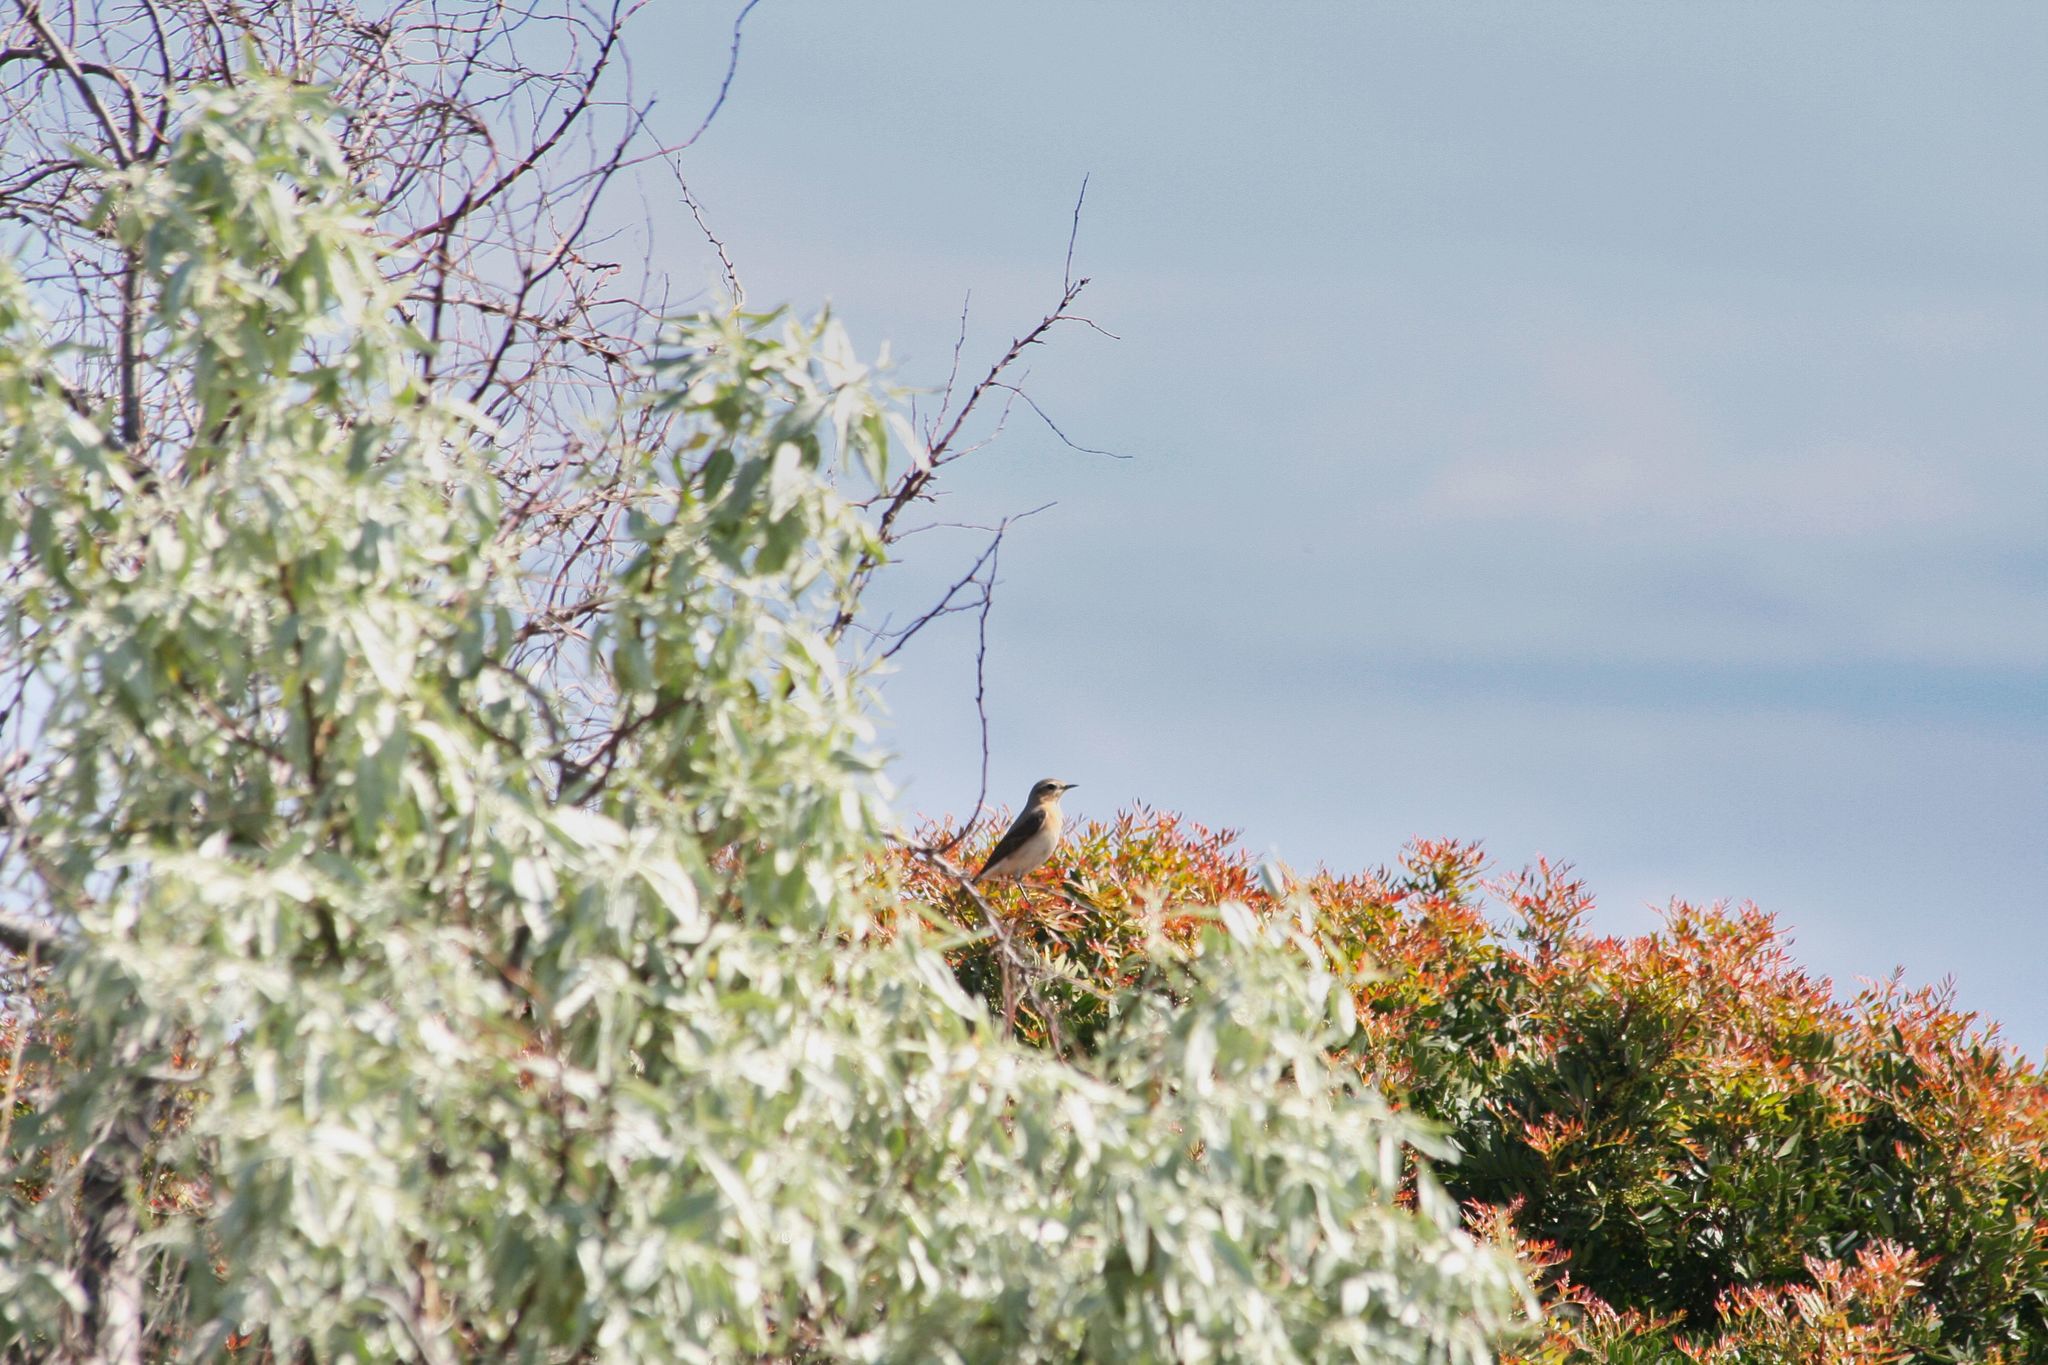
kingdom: Animalia
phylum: Chordata
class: Aves
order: Passeriformes
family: Muscicapidae
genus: Oenanthe
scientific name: Oenanthe oenanthe
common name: Northern wheatear
